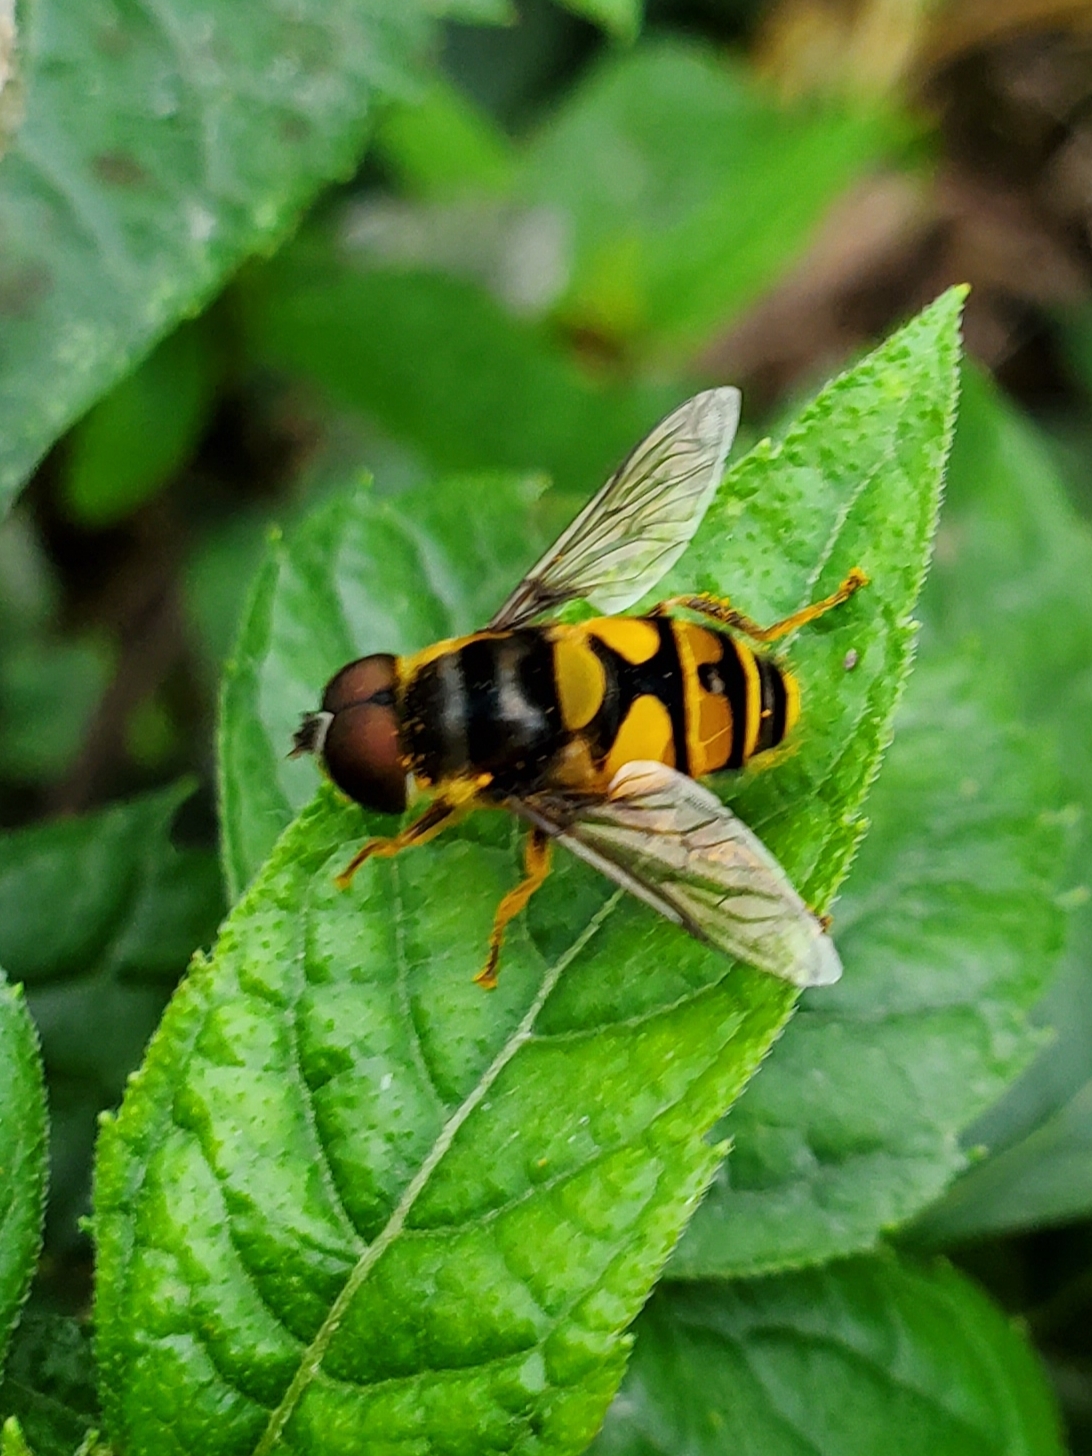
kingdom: Animalia
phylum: Arthropoda
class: Insecta
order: Diptera
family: Syrphidae
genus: Eristalis
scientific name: Eristalis transversa
